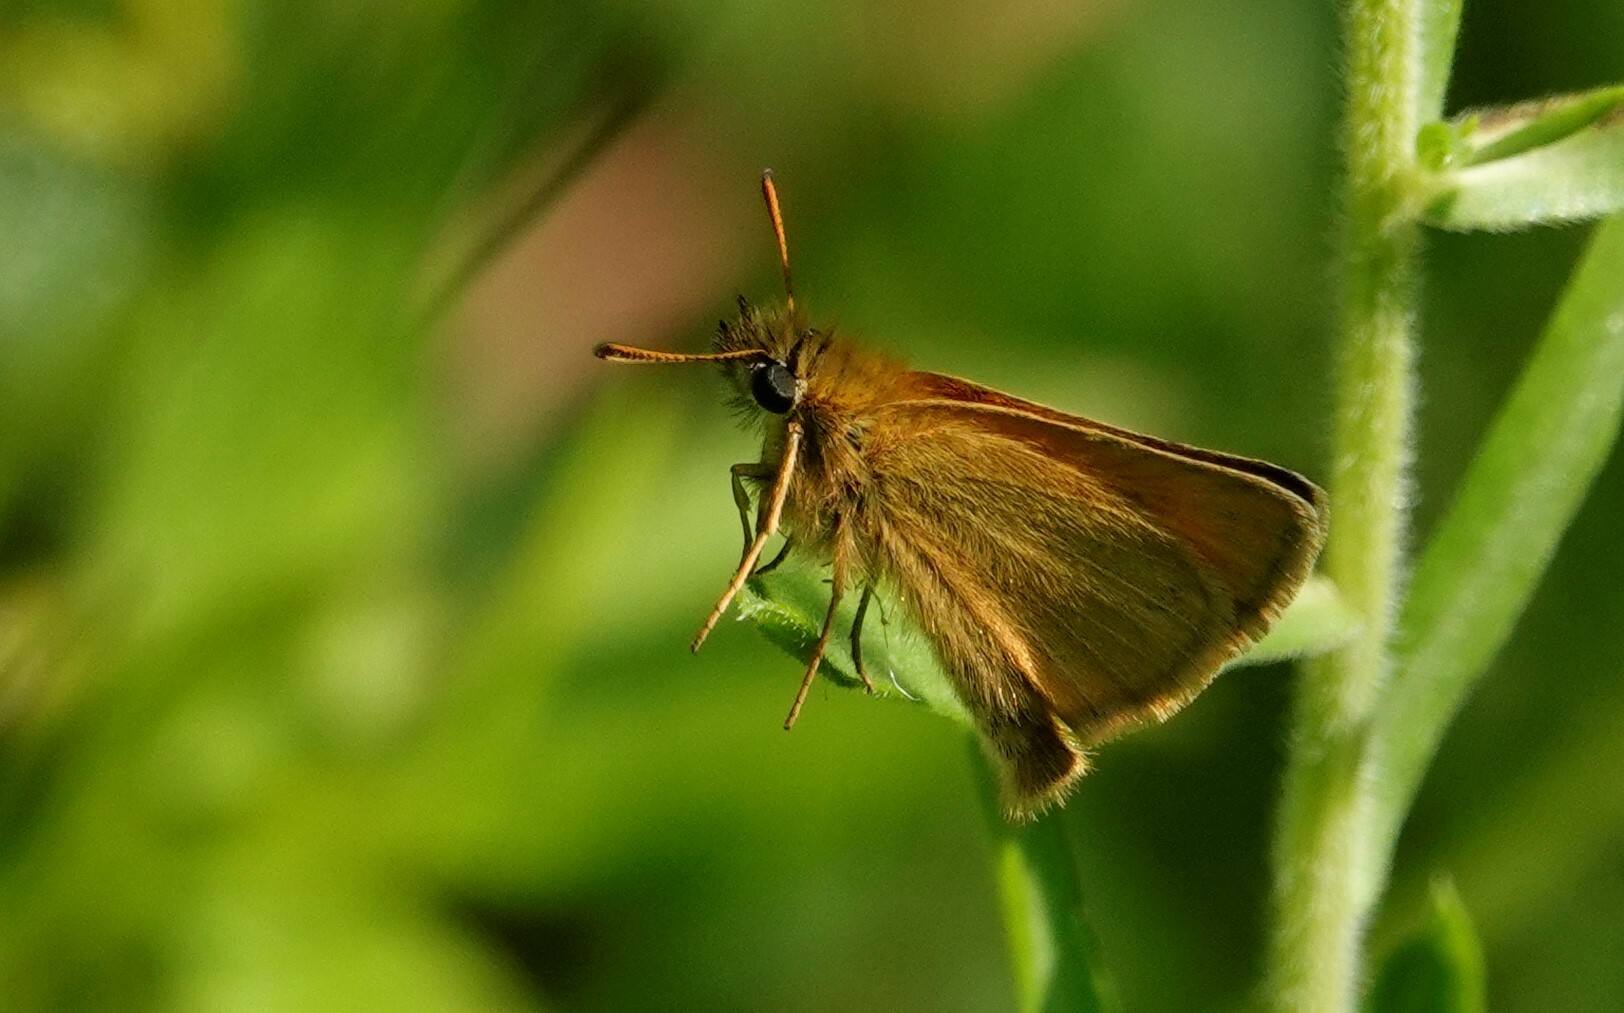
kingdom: Animalia
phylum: Arthropoda
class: Insecta
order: Lepidoptera
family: Hesperiidae
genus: Thymelicus
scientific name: Thymelicus lineola
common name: Essex skipper
